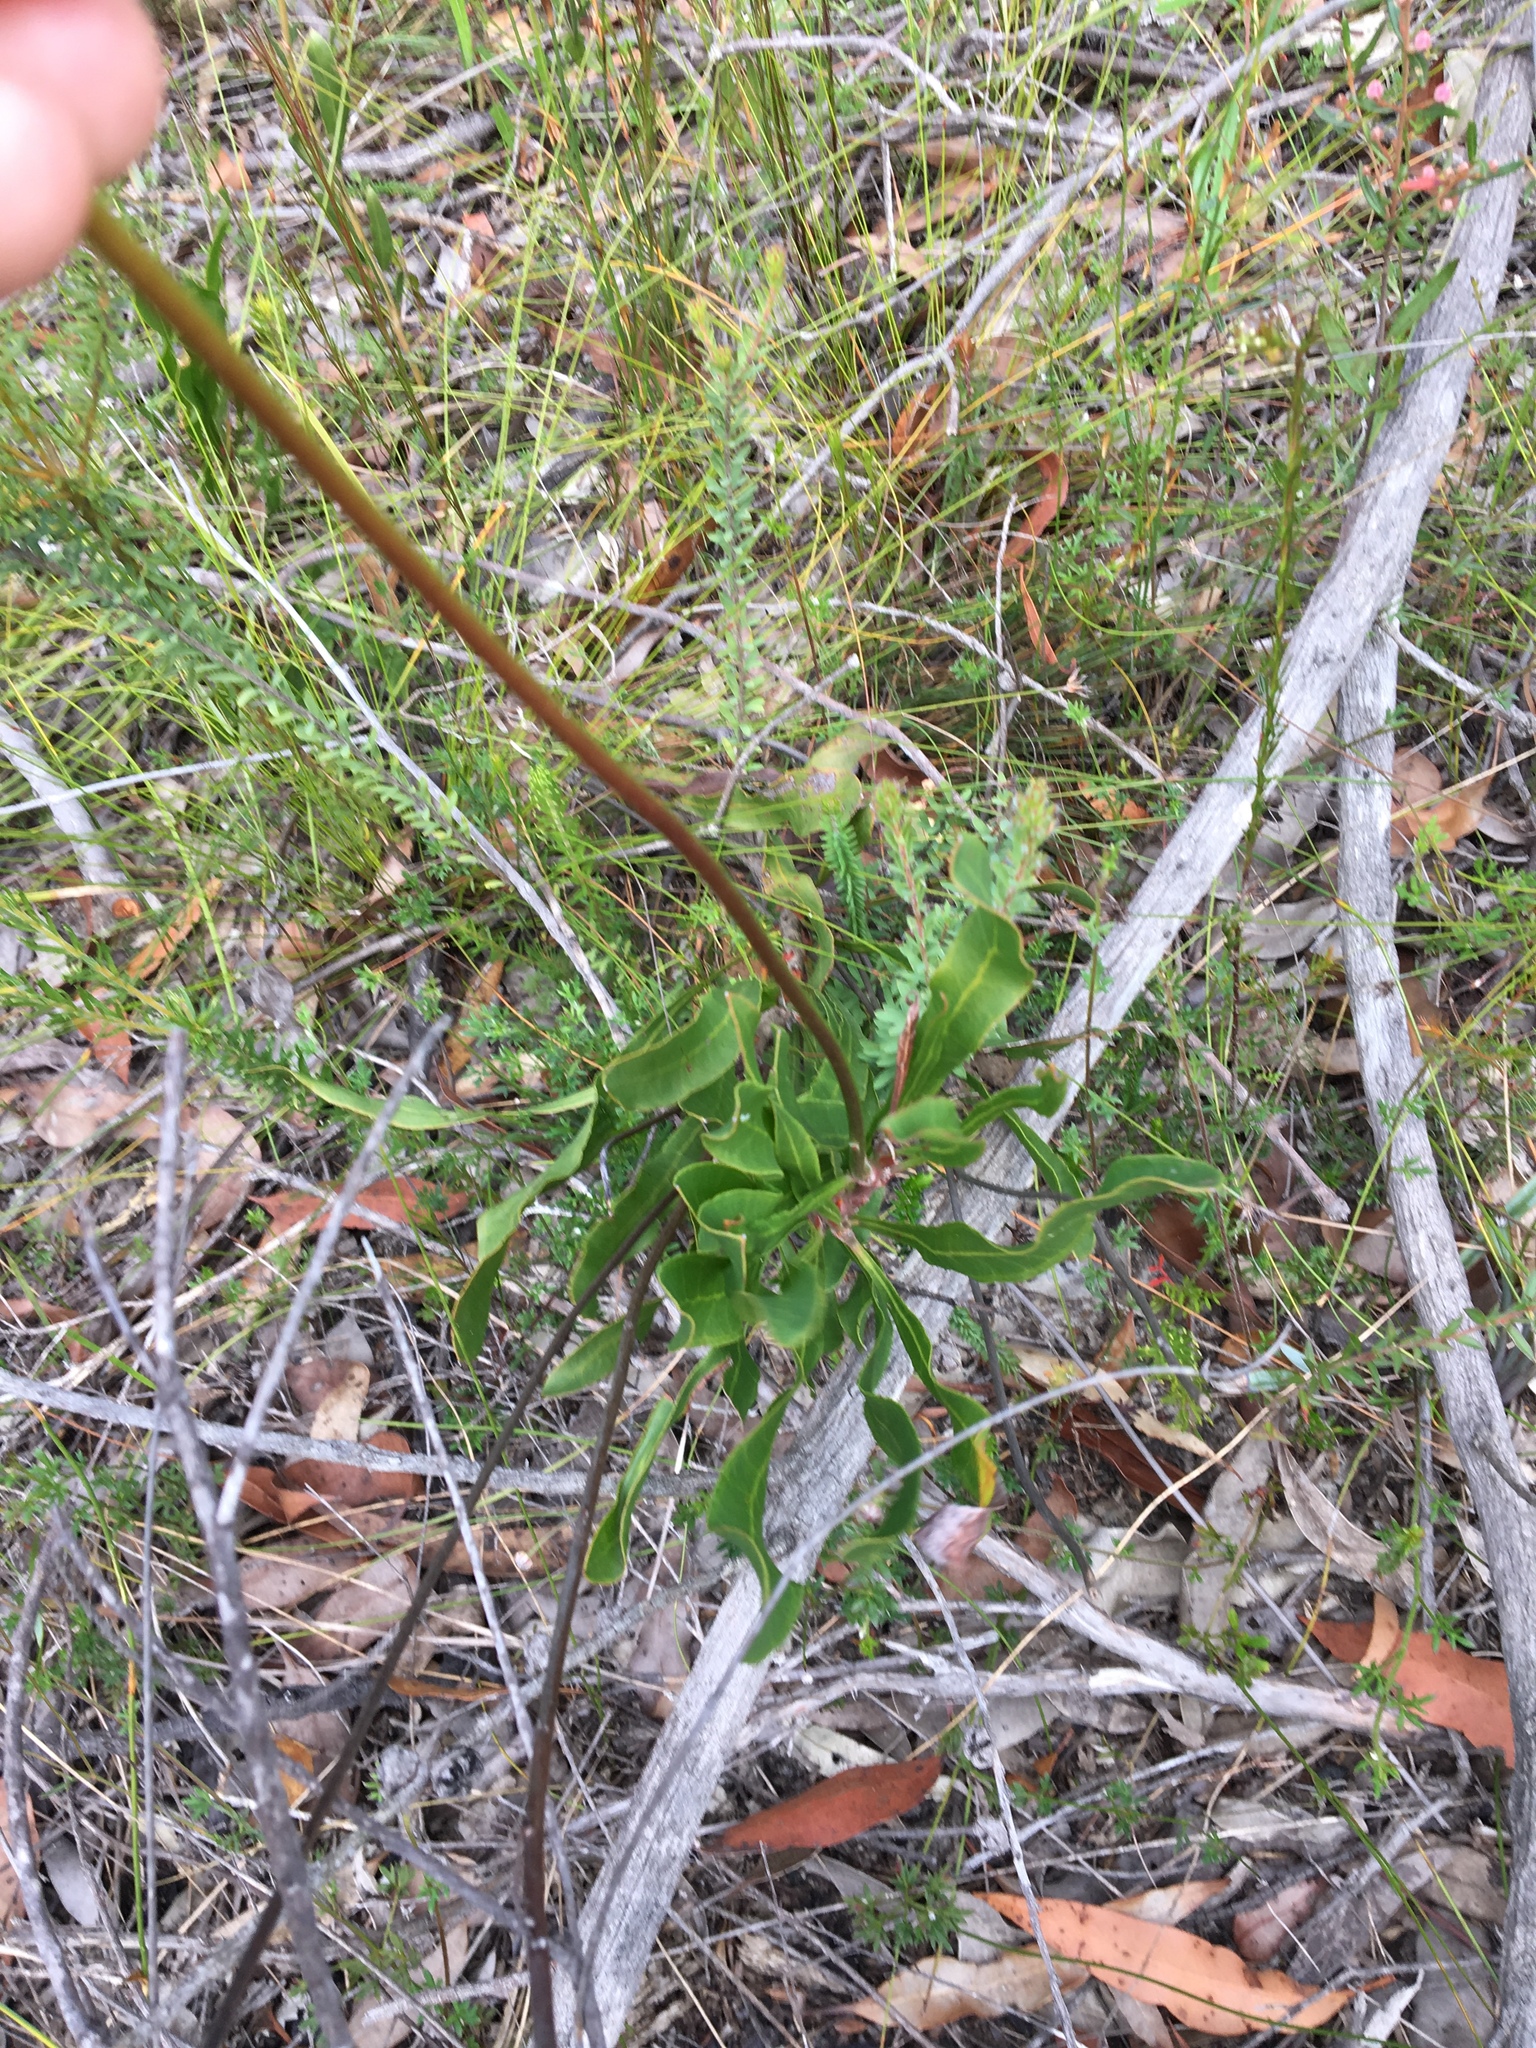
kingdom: Plantae
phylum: Tracheophyta
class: Magnoliopsida
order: Proteales
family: Proteaceae
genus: Conospermum
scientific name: Conospermum longifolium
